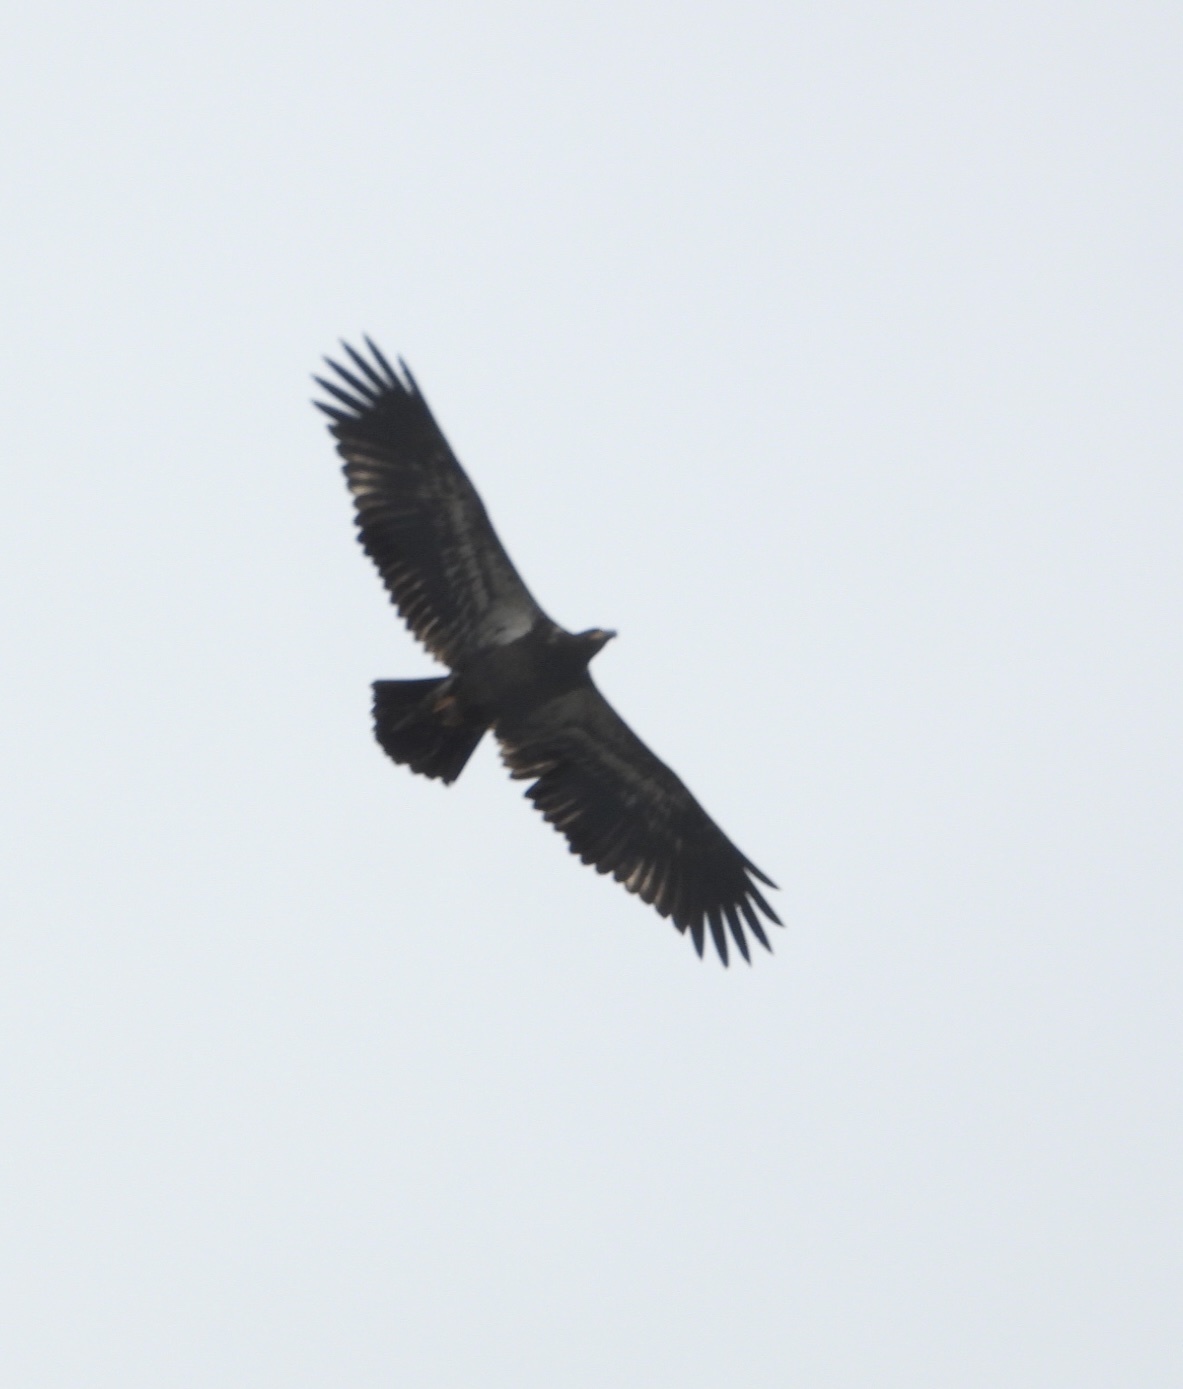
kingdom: Animalia
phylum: Chordata
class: Aves
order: Accipitriformes
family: Accipitridae
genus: Haliaeetus
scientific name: Haliaeetus leucocephalus
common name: Bald eagle
